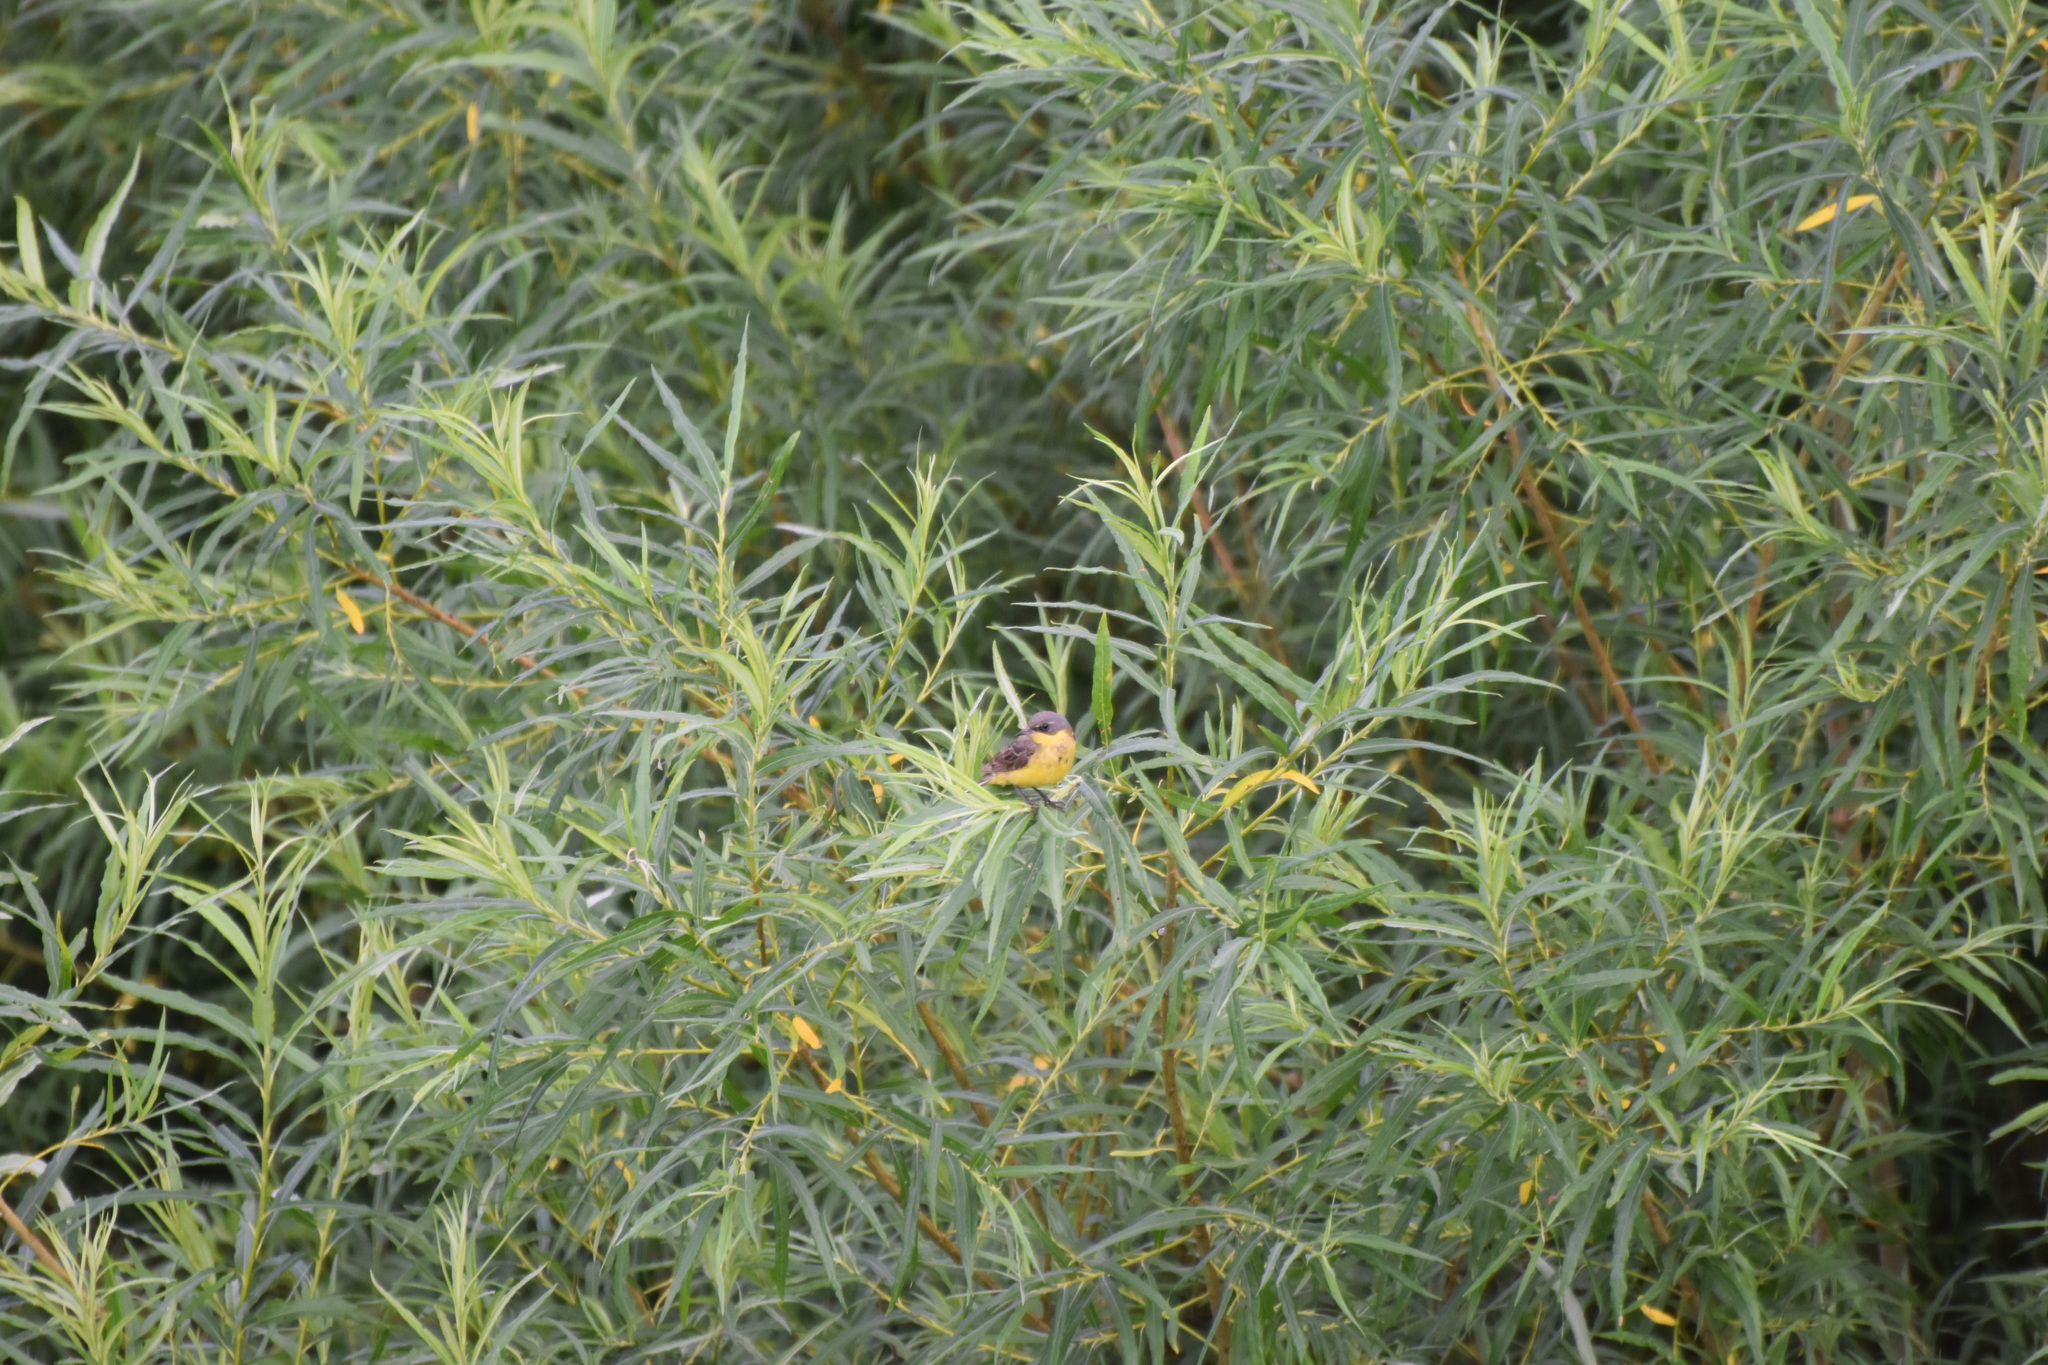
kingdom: Animalia
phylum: Chordata
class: Aves
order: Passeriformes
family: Motacillidae
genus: Motacilla
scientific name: Motacilla flava
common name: Western yellow wagtail
